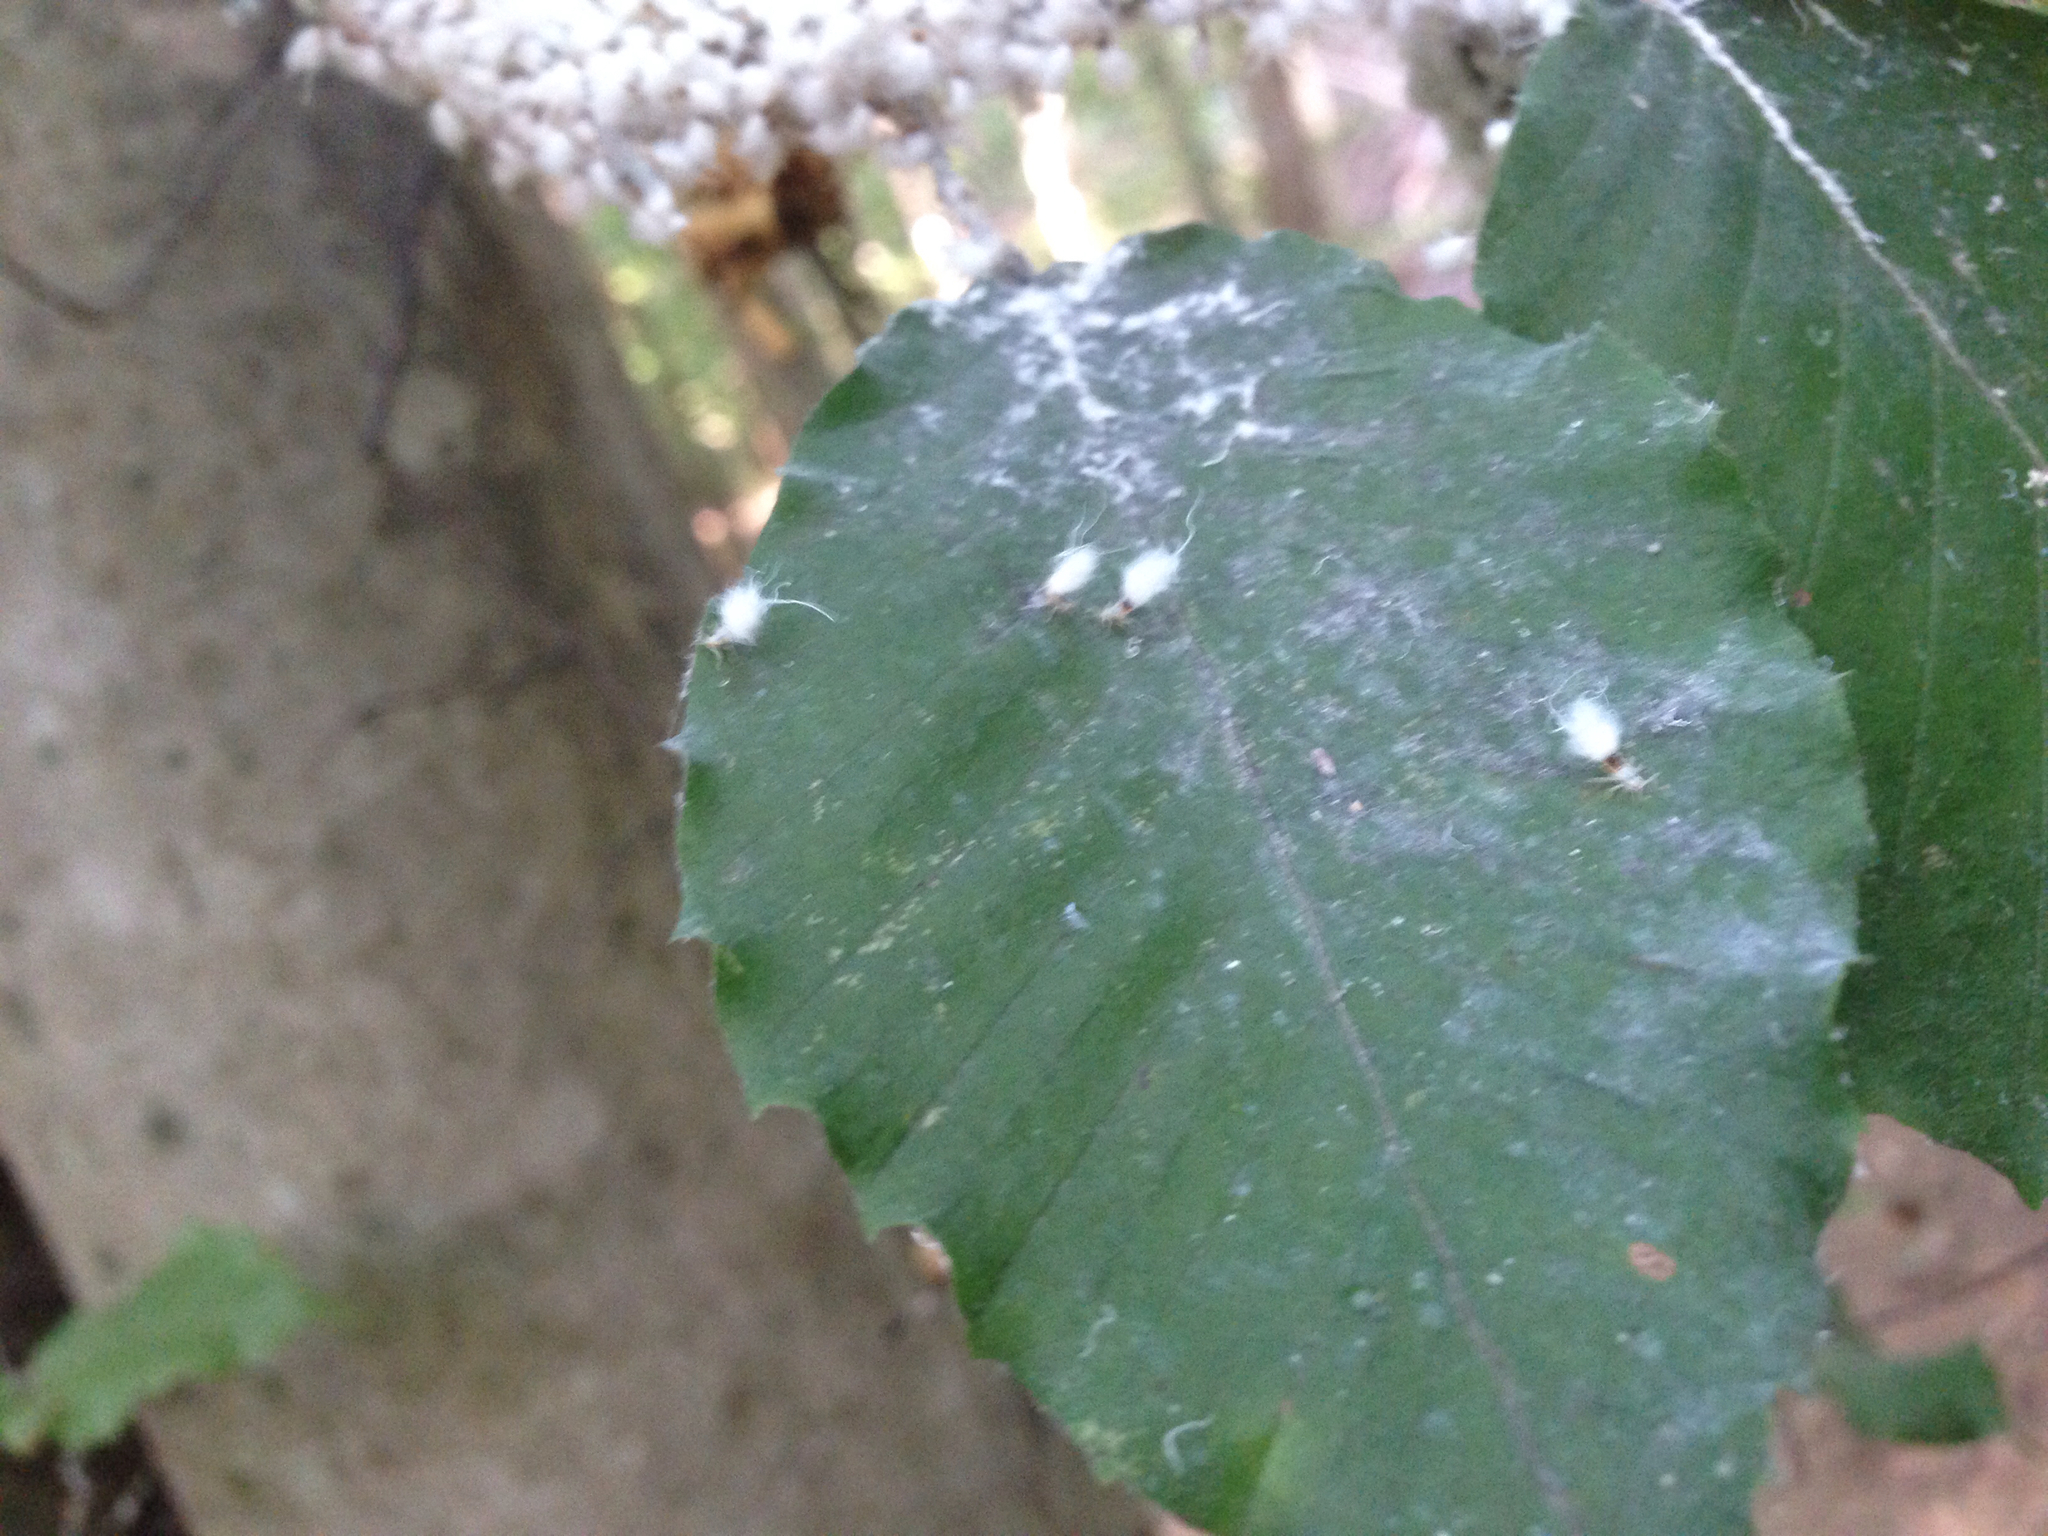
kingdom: Animalia
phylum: Arthropoda
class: Insecta
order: Hemiptera
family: Aphididae
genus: Grylloprociphilus
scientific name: Grylloprociphilus imbricator
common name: Beech blight aphid
